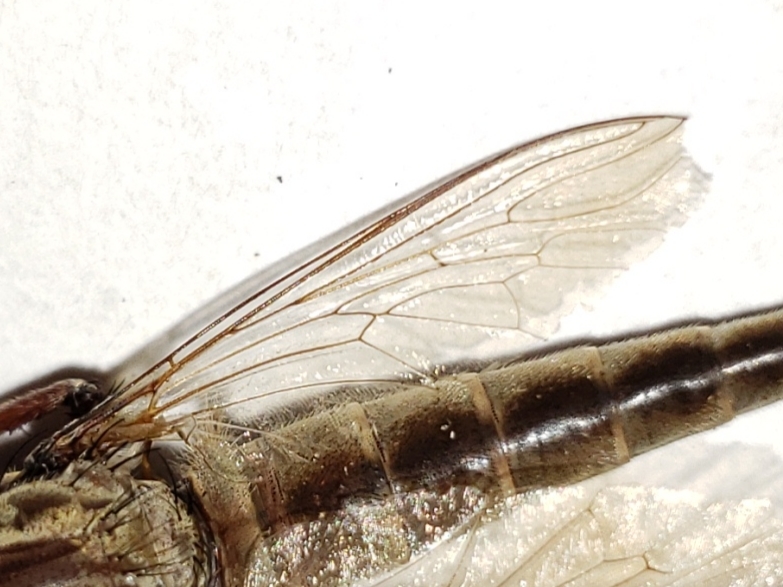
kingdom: Animalia
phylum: Arthropoda
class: Insecta
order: Diptera
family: Asilidae
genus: Proctacanthus
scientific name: Proctacanthus gracilis
